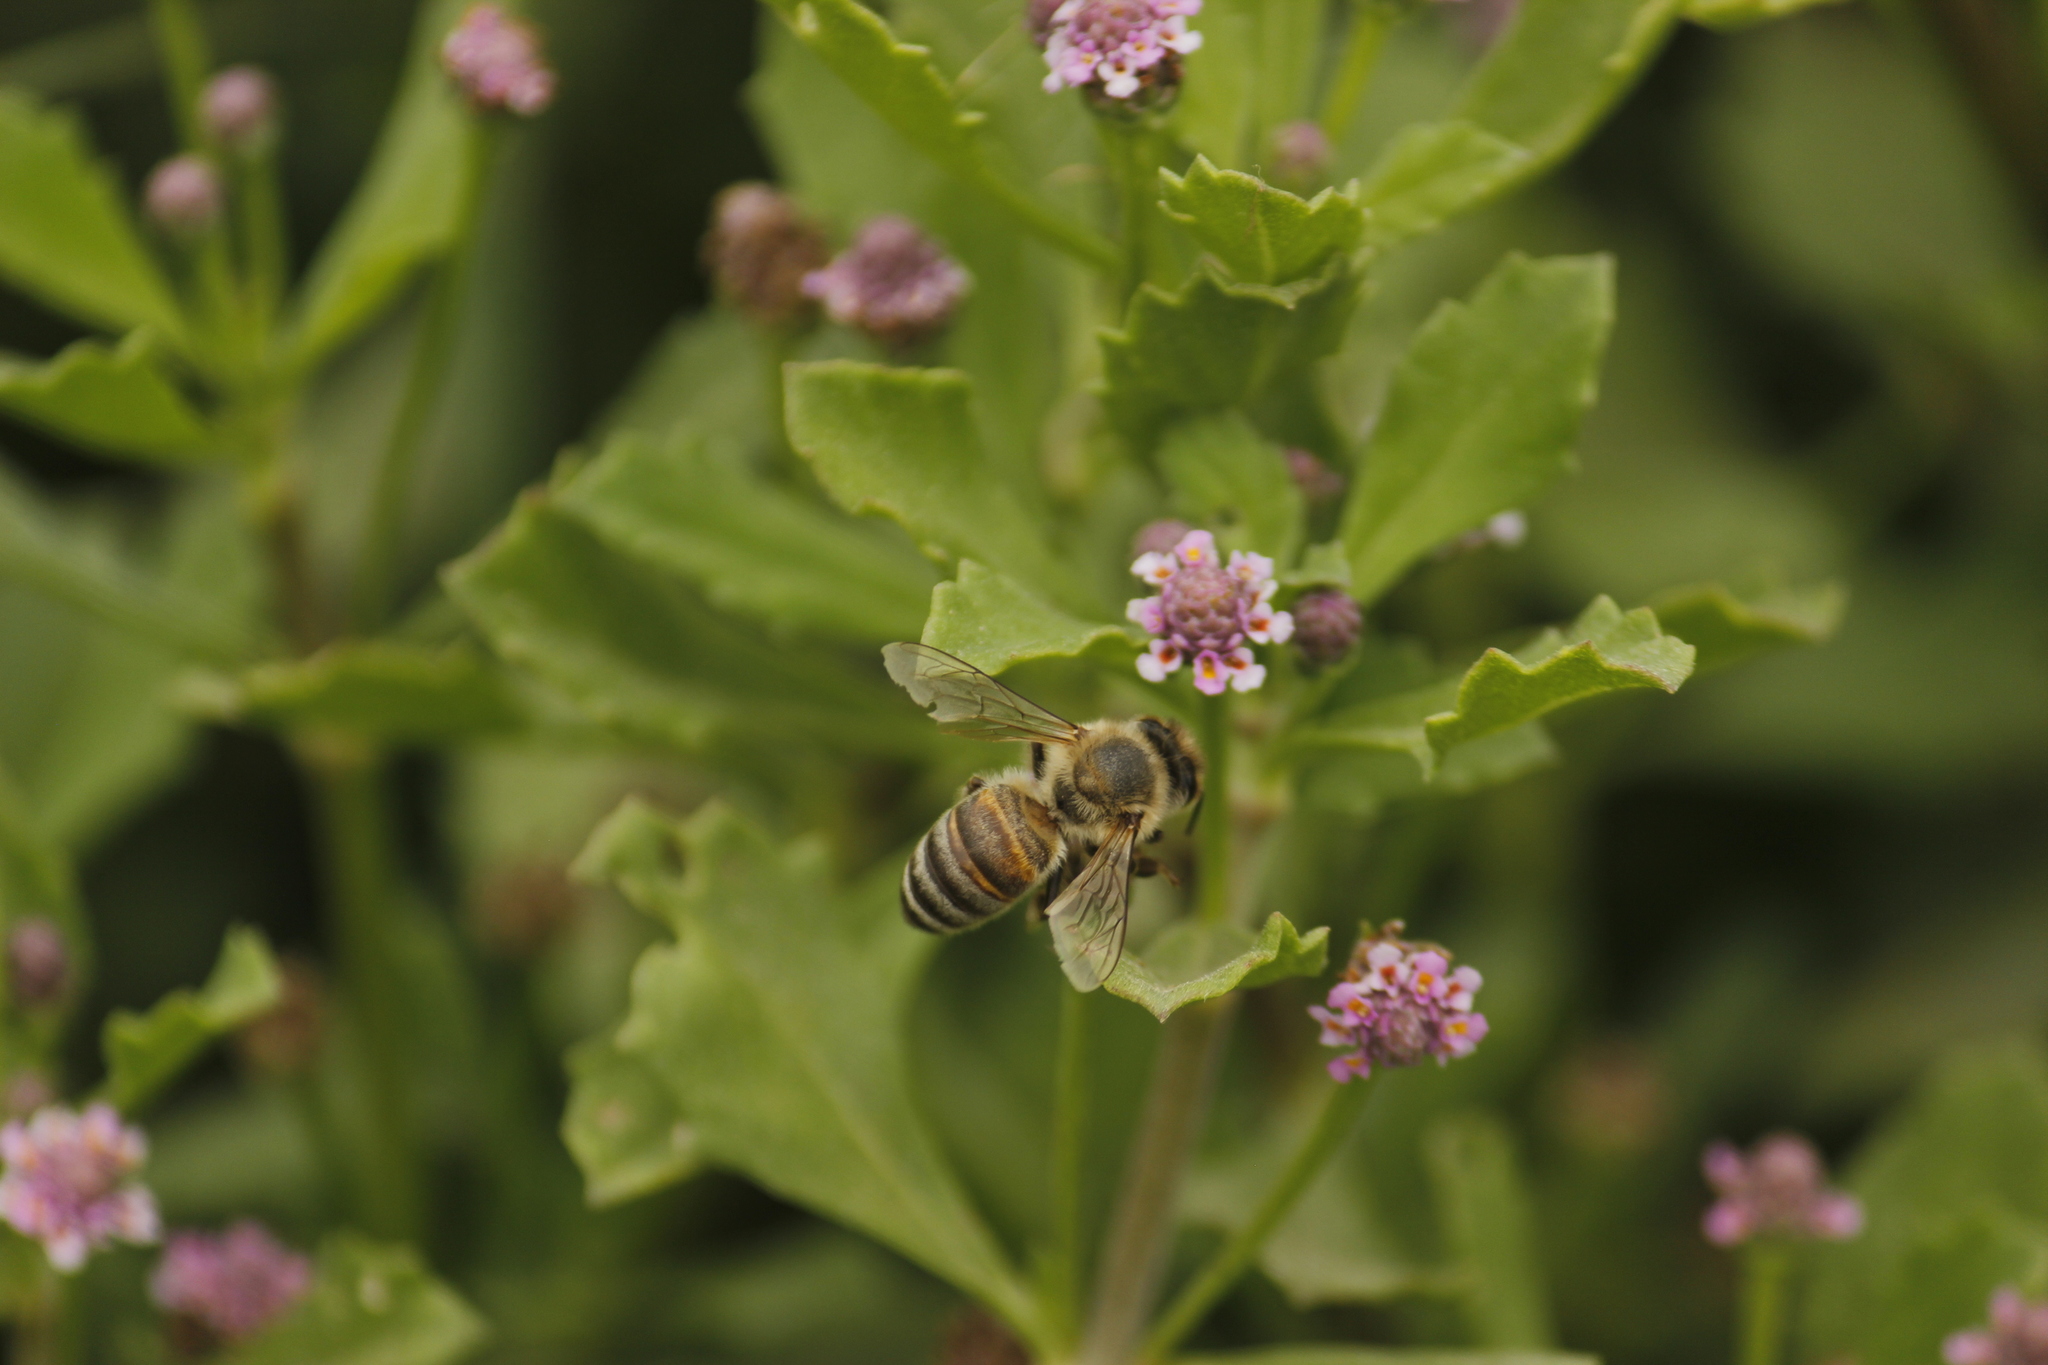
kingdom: Animalia
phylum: Arthropoda
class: Insecta
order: Hymenoptera
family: Apidae
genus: Apis
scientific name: Apis mellifera
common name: Honey bee
